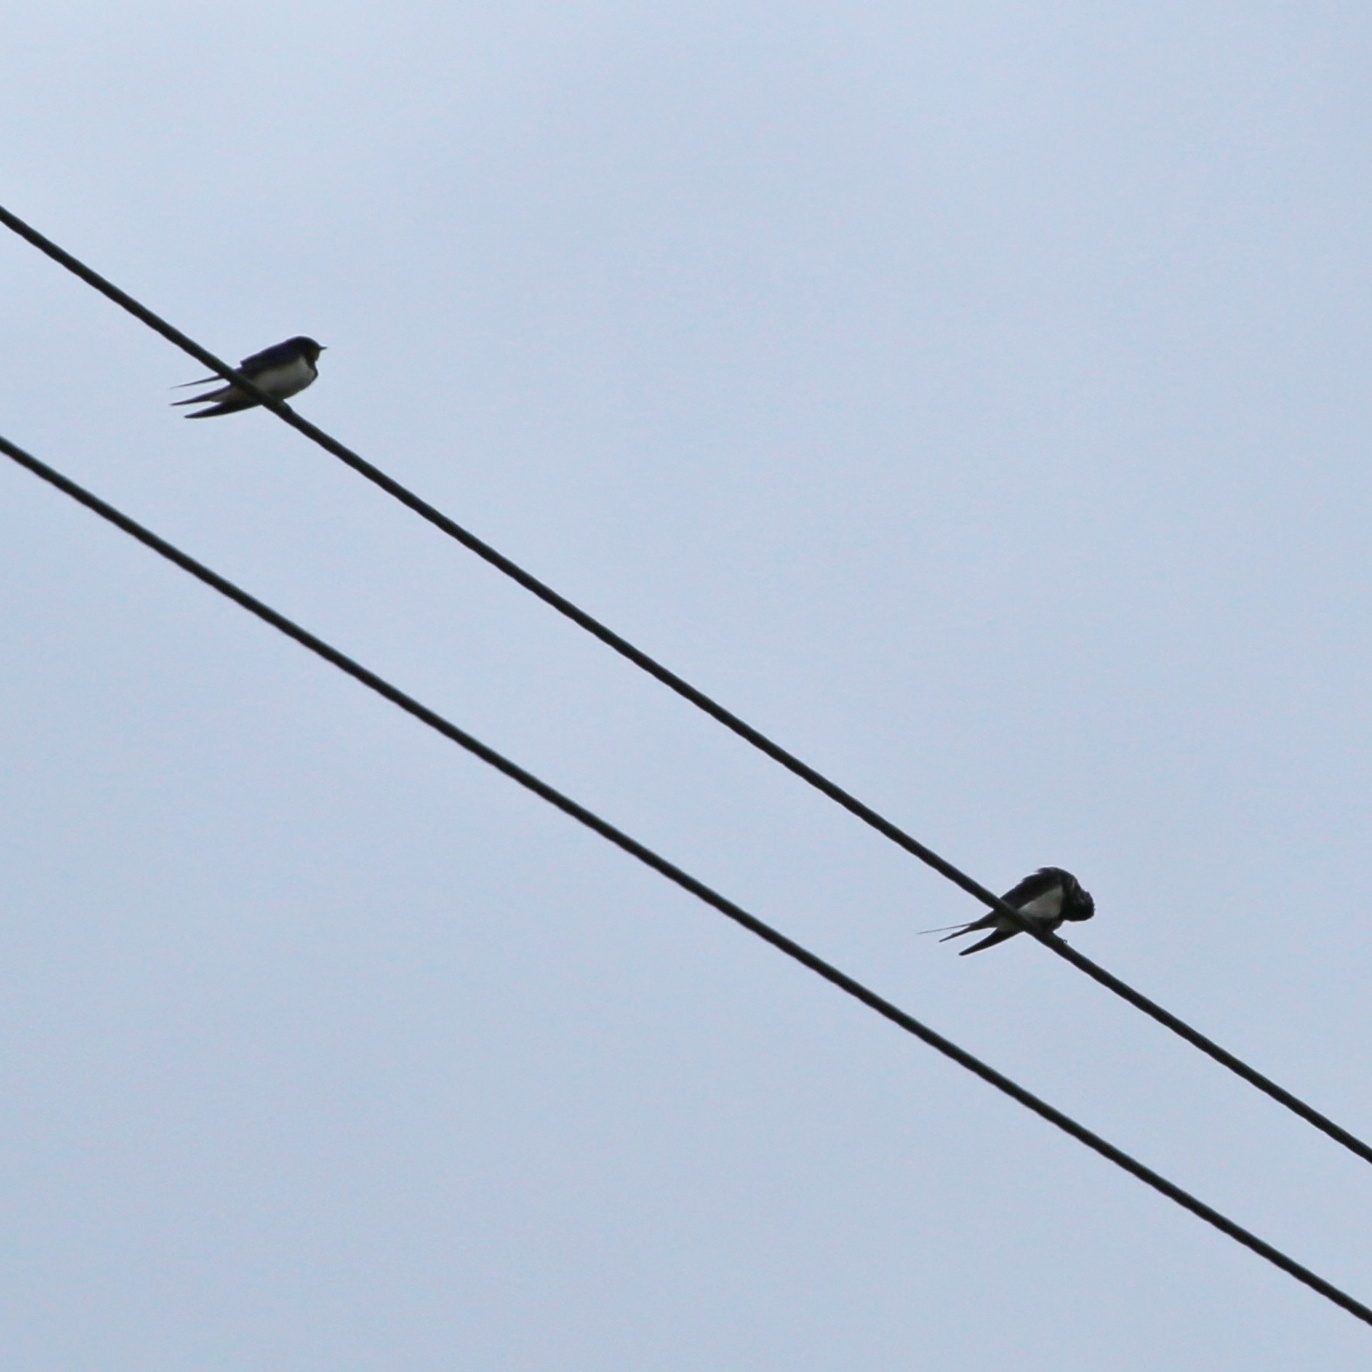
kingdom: Animalia
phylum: Chordata
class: Aves
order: Passeriformes
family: Hirundinidae
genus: Hirundo
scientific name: Hirundo rustica
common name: Barn swallow
